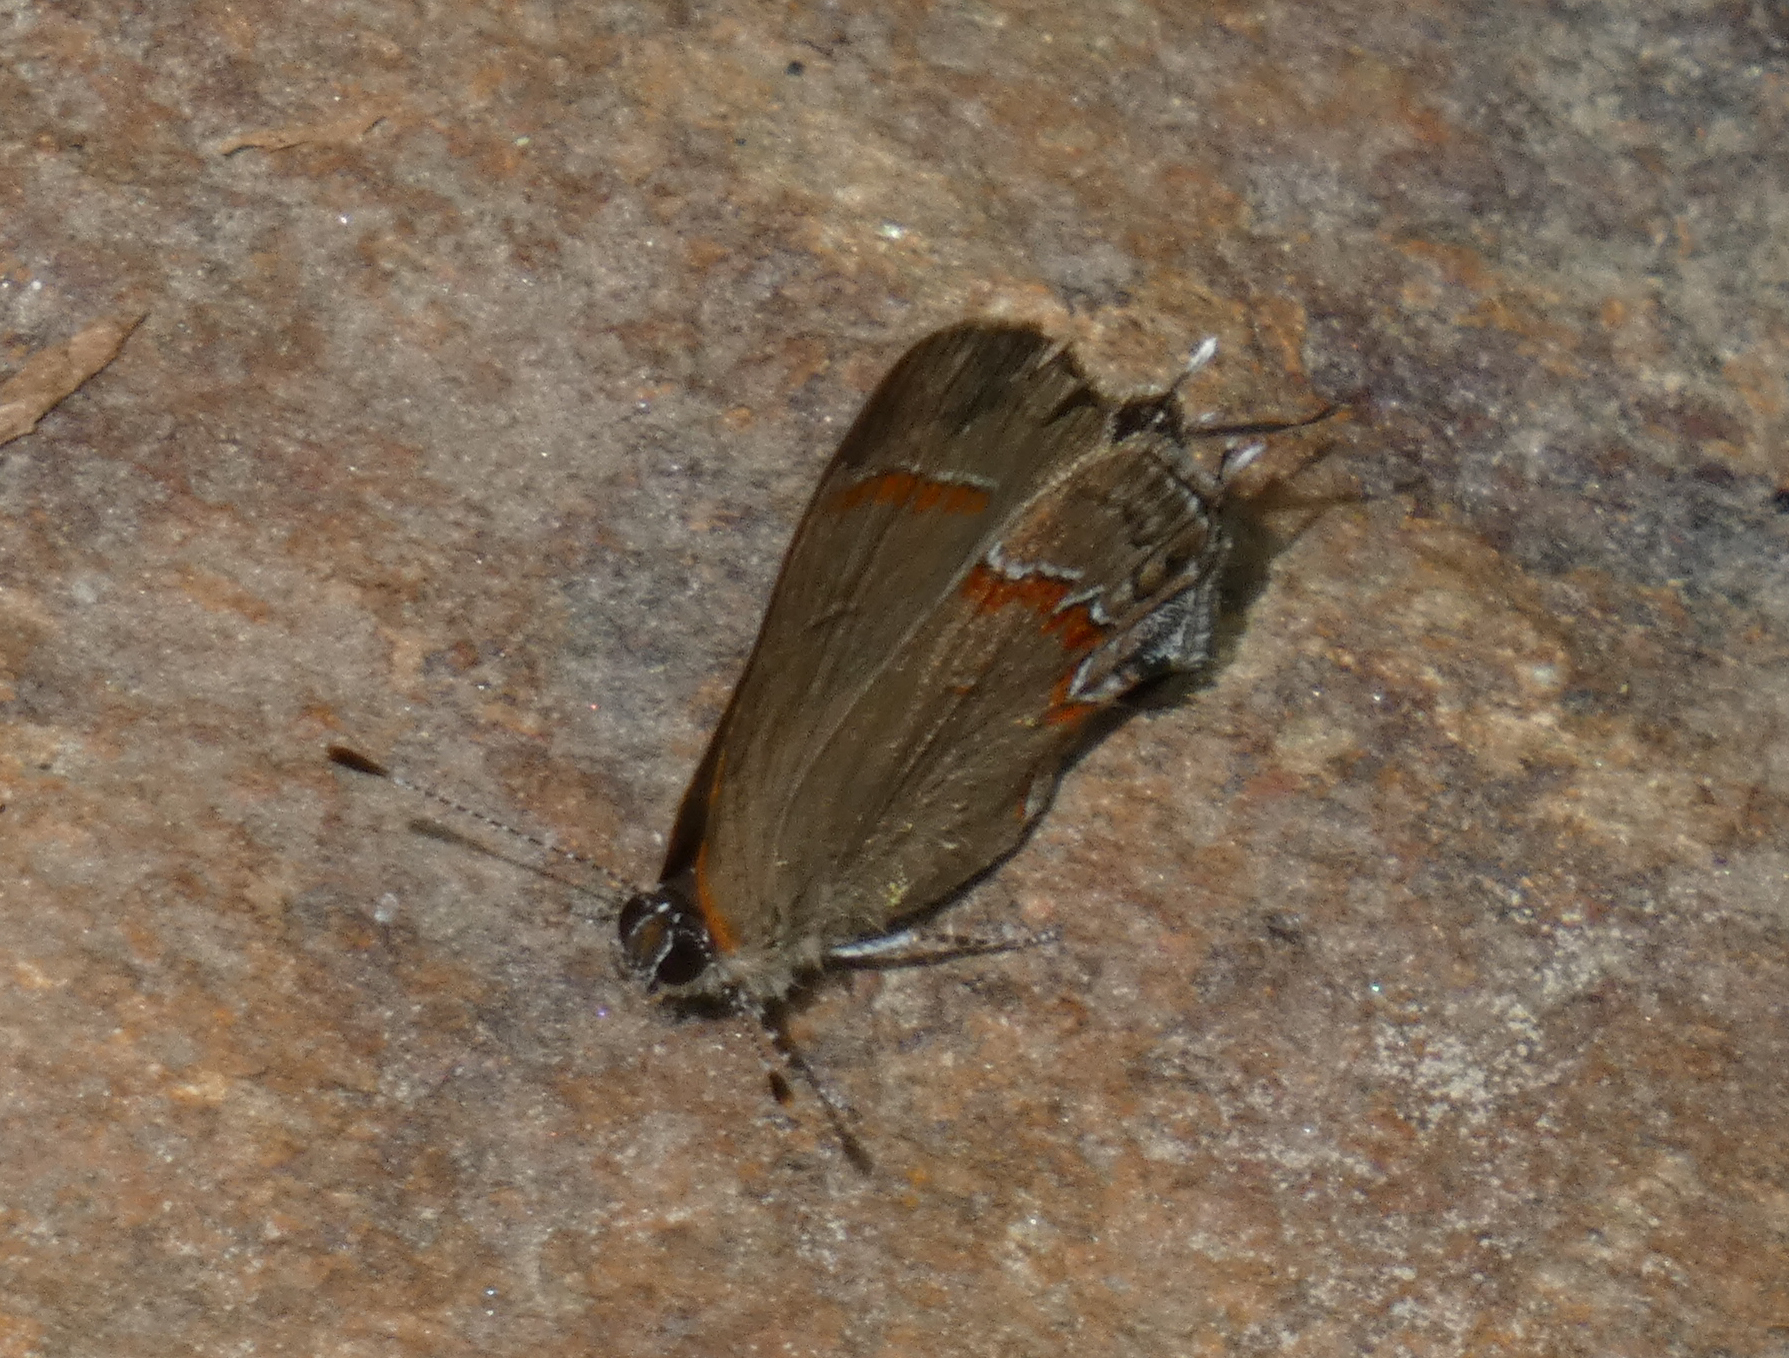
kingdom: Animalia
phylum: Arthropoda
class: Insecta
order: Lepidoptera
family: Lycaenidae
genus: Calycopis
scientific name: Calycopis cecrops
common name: Red-banded hairstreak
